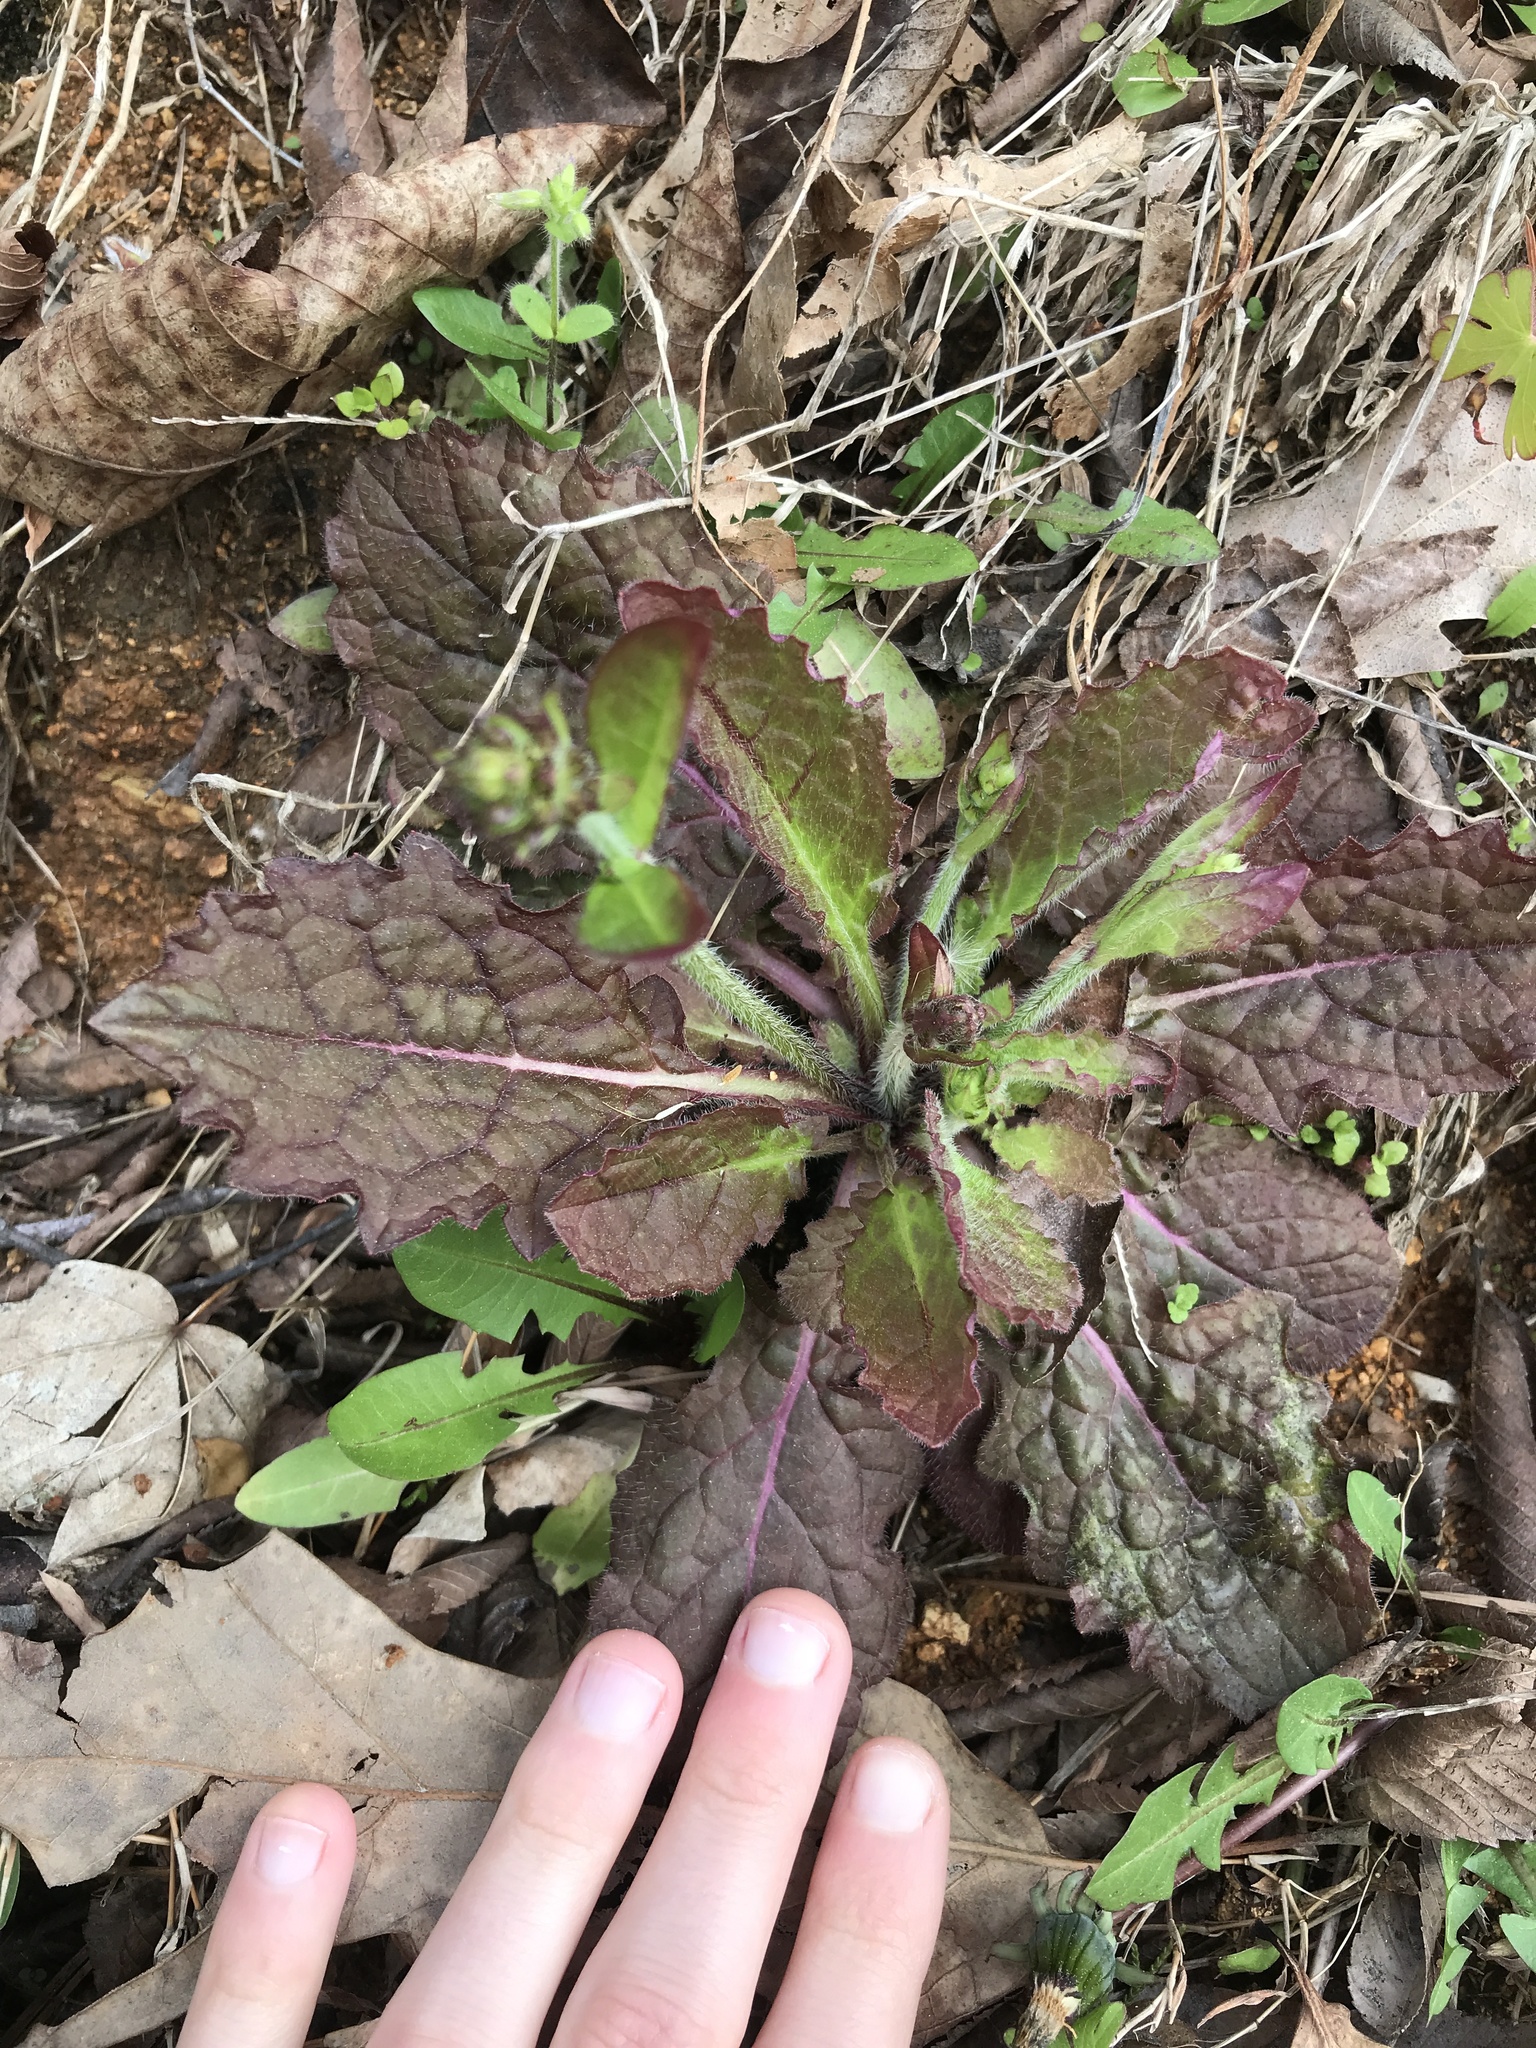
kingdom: Plantae
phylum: Tracheophyta
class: Magnoliopsida
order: Lamiales
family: Lamiaceae
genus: Salvia
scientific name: Salvia lyrata
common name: Cancerweed
